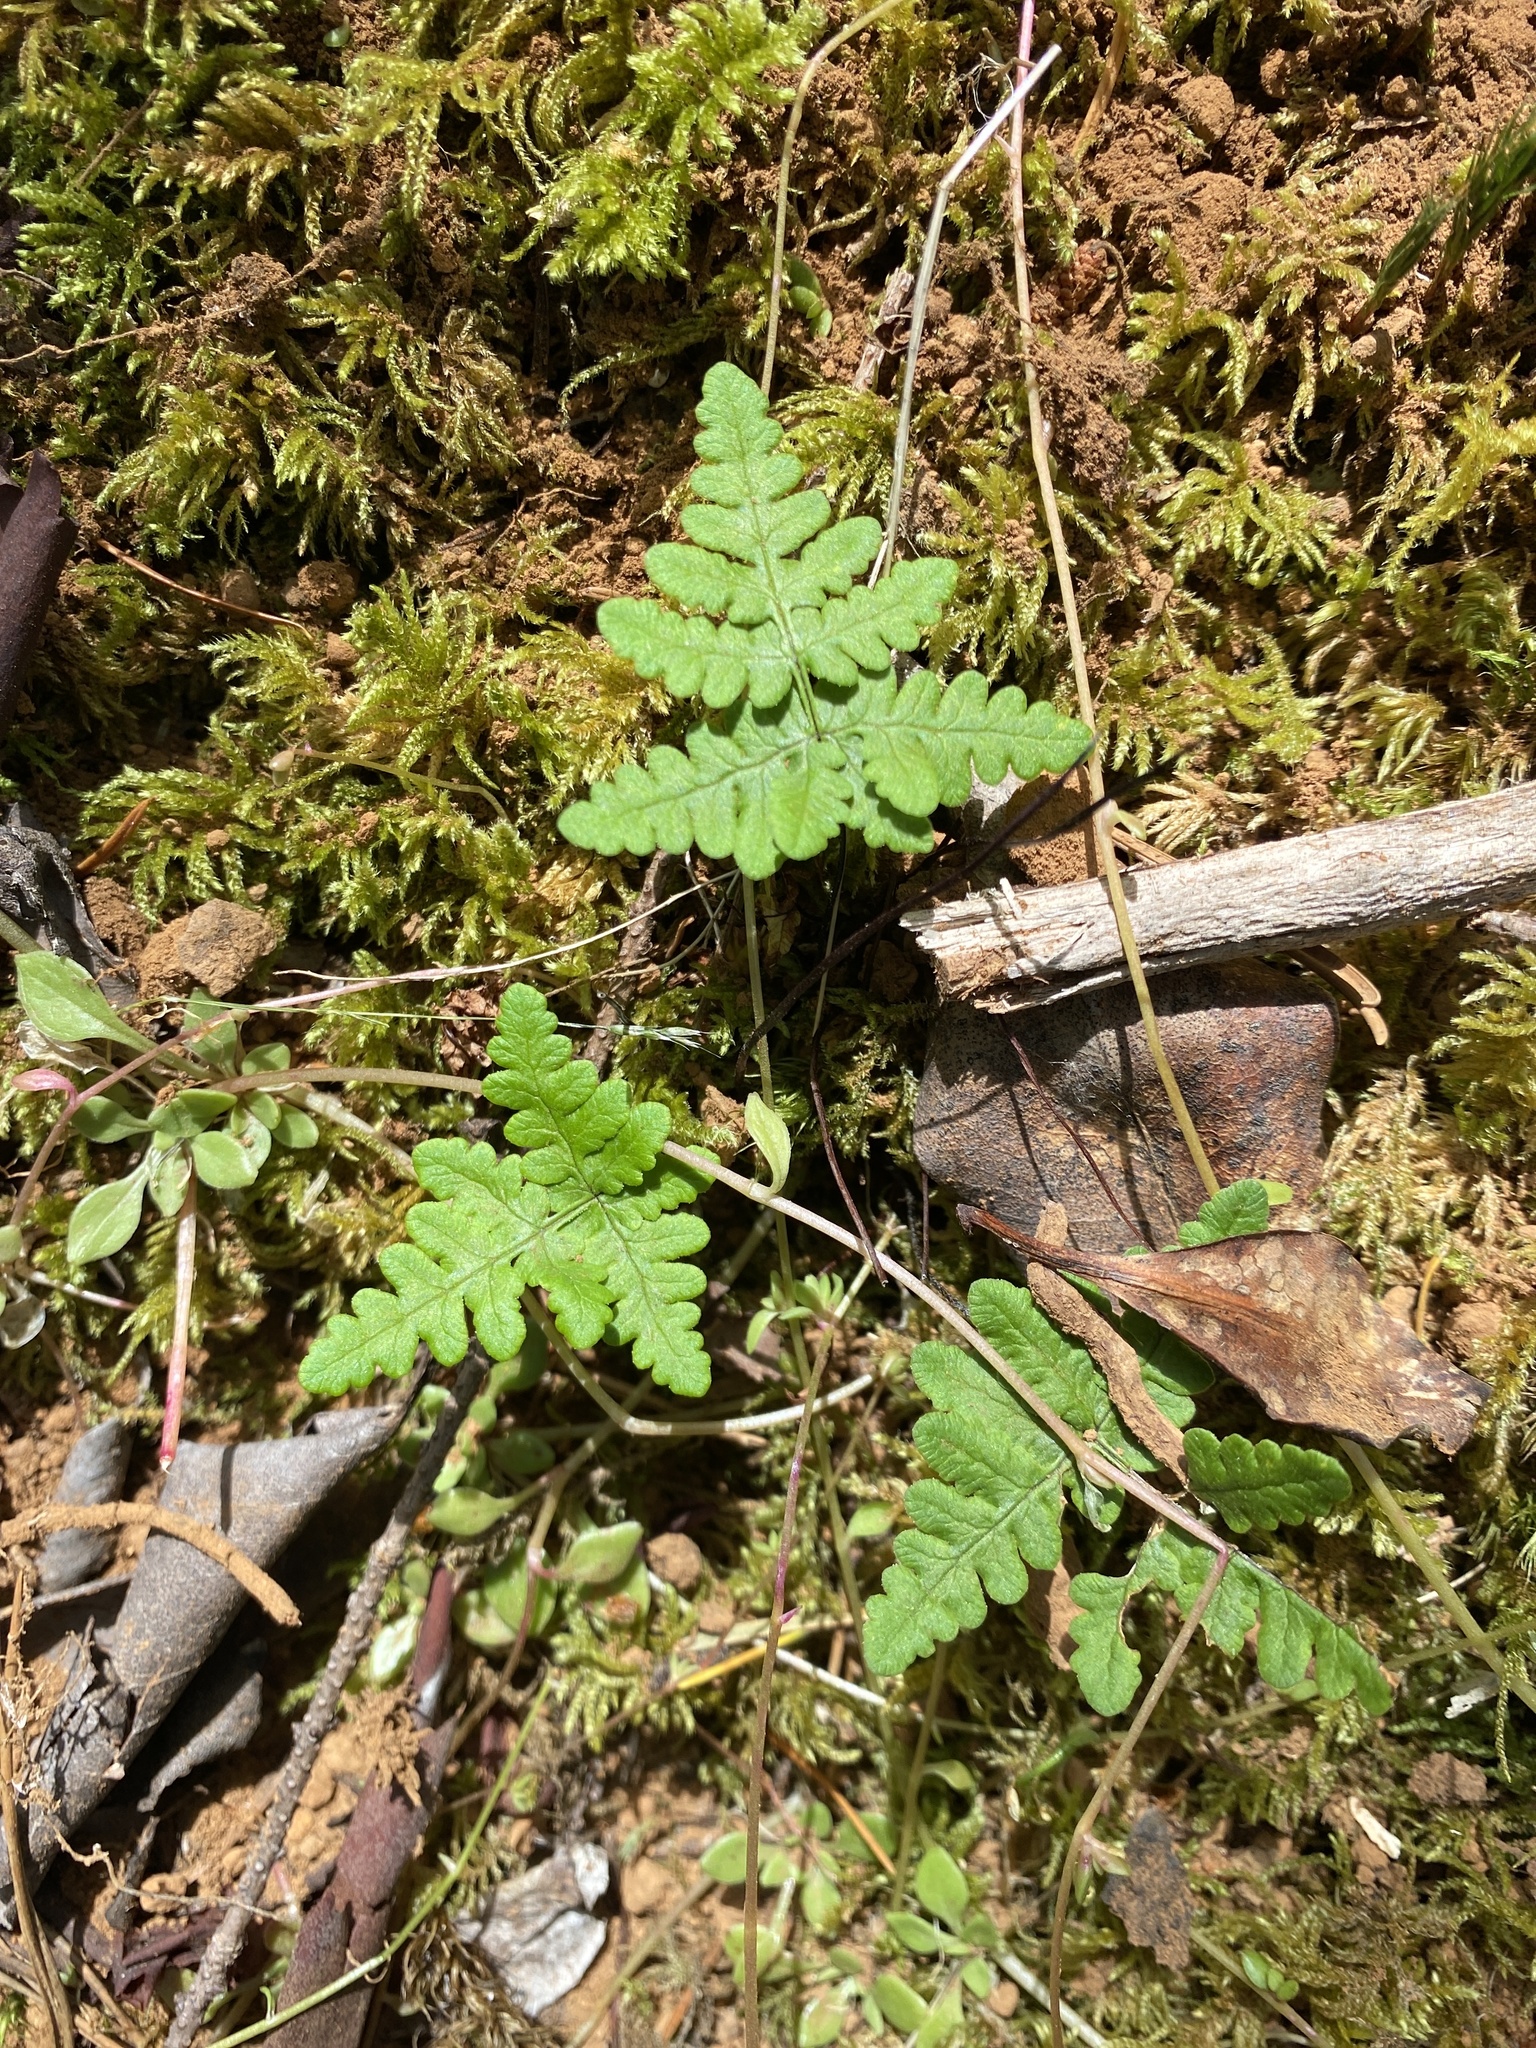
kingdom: Plantae
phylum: Tracheophyta
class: Polypodiopsida
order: Polypodiales
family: Pteridaceae
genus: Pentagramma
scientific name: Pentagramma triangularis
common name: Gold fern
